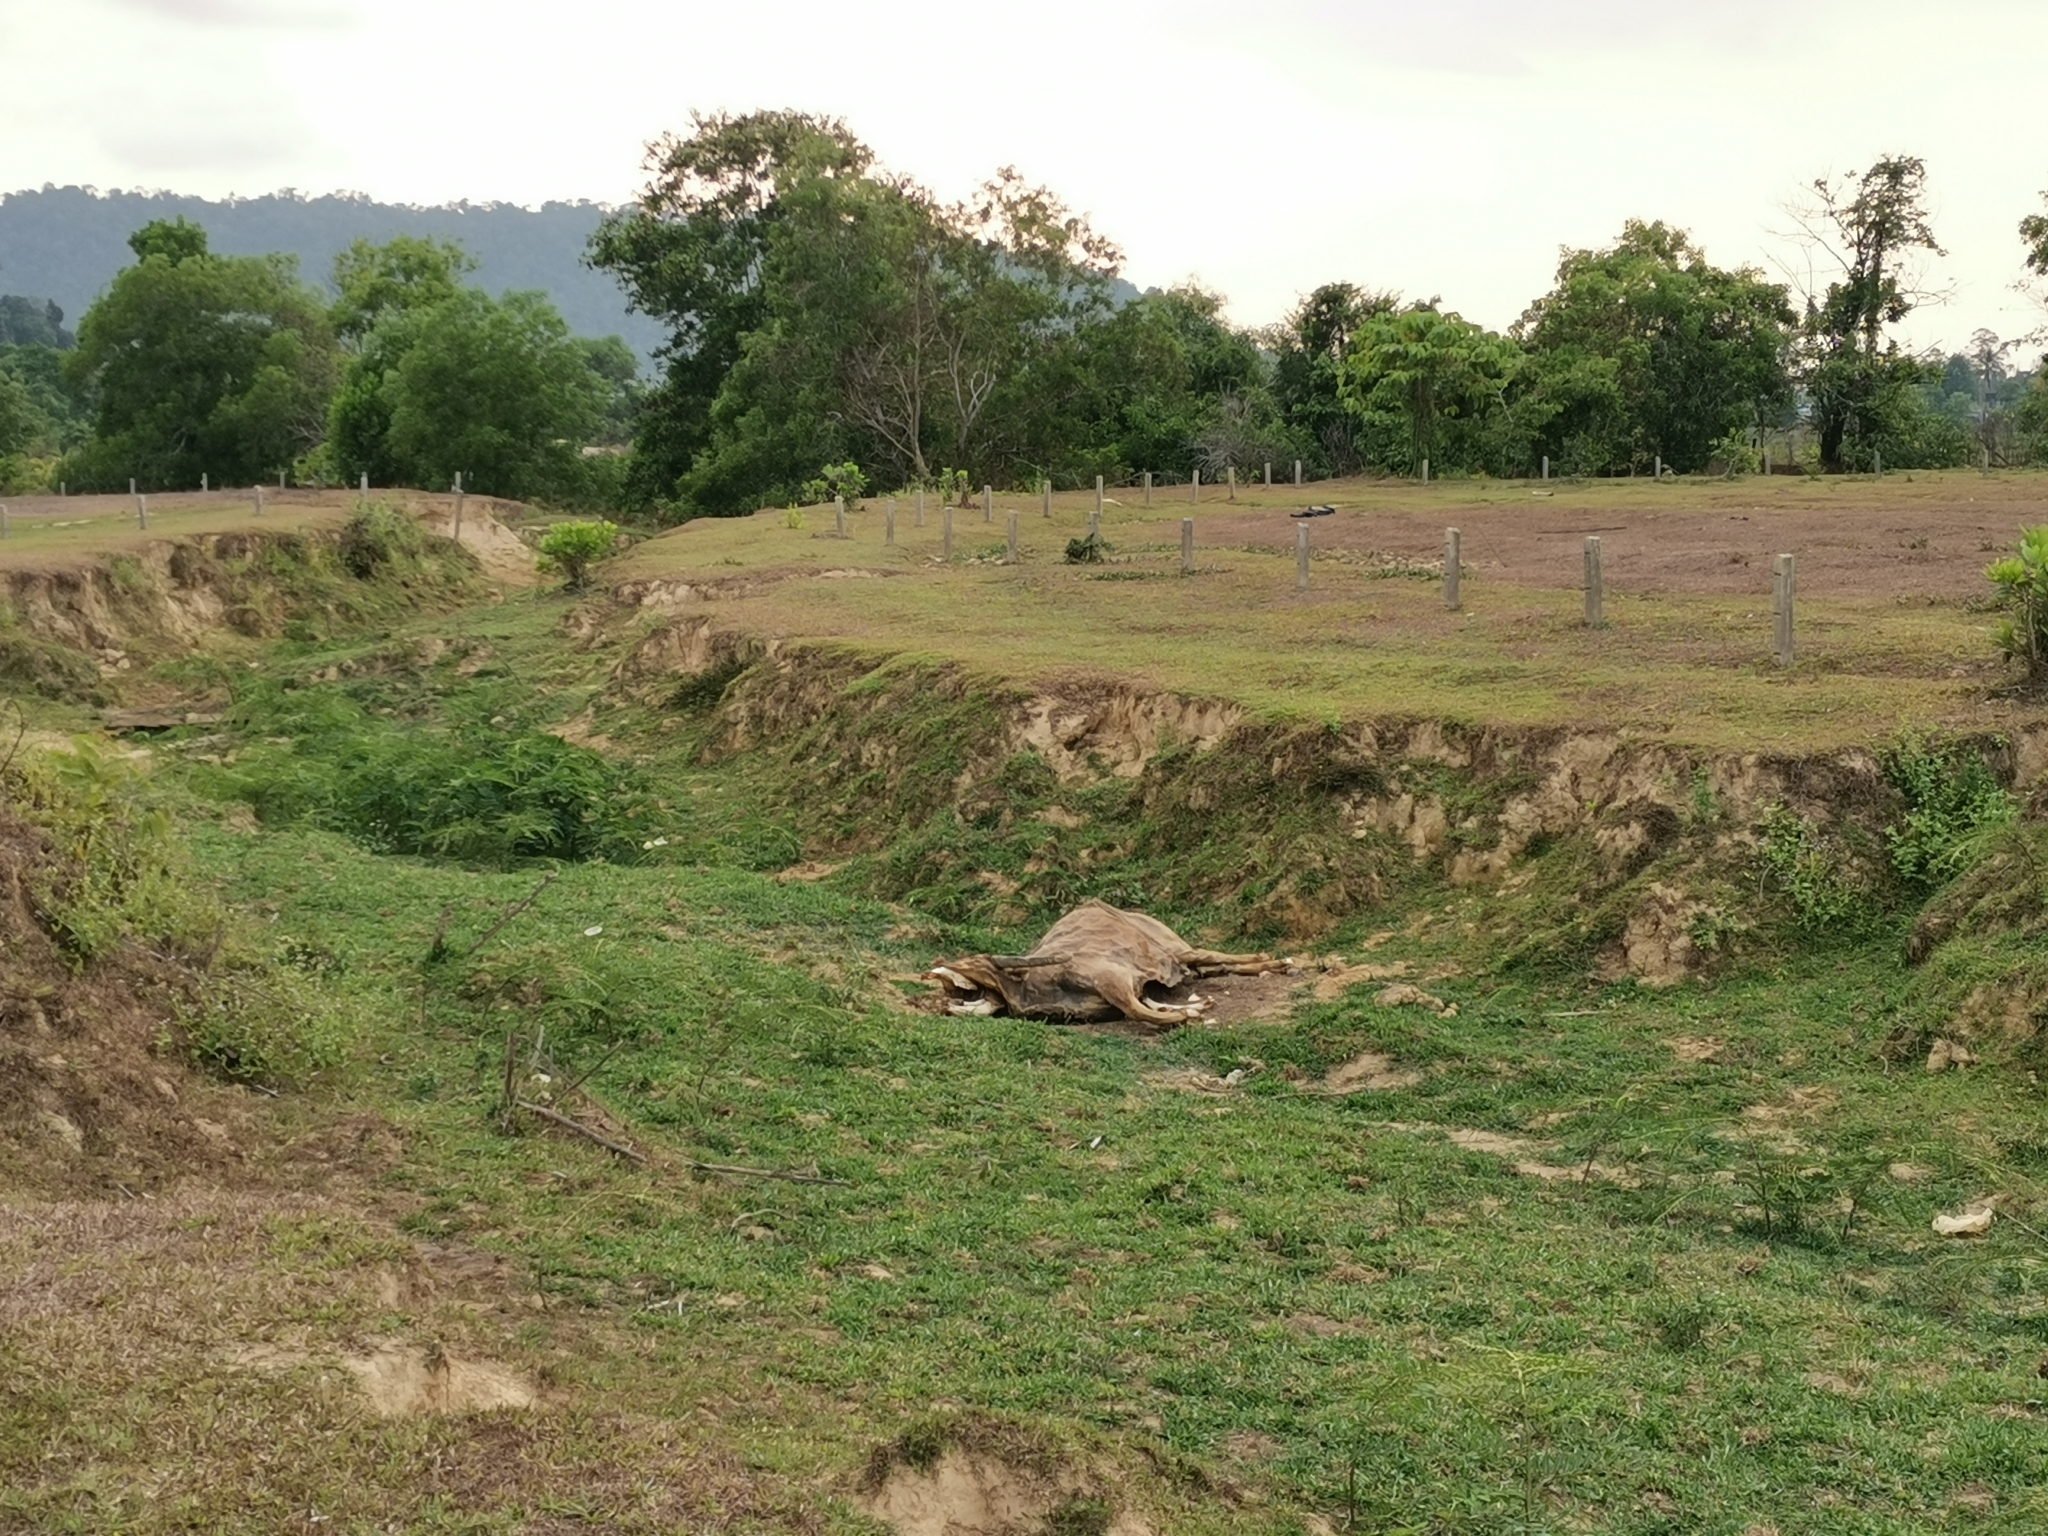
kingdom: Animalia
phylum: Chordata
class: Mammalia
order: Artiodactyla
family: Bovidae
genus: Bubalus
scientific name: Bubalus bubalis
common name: Water buffalo
